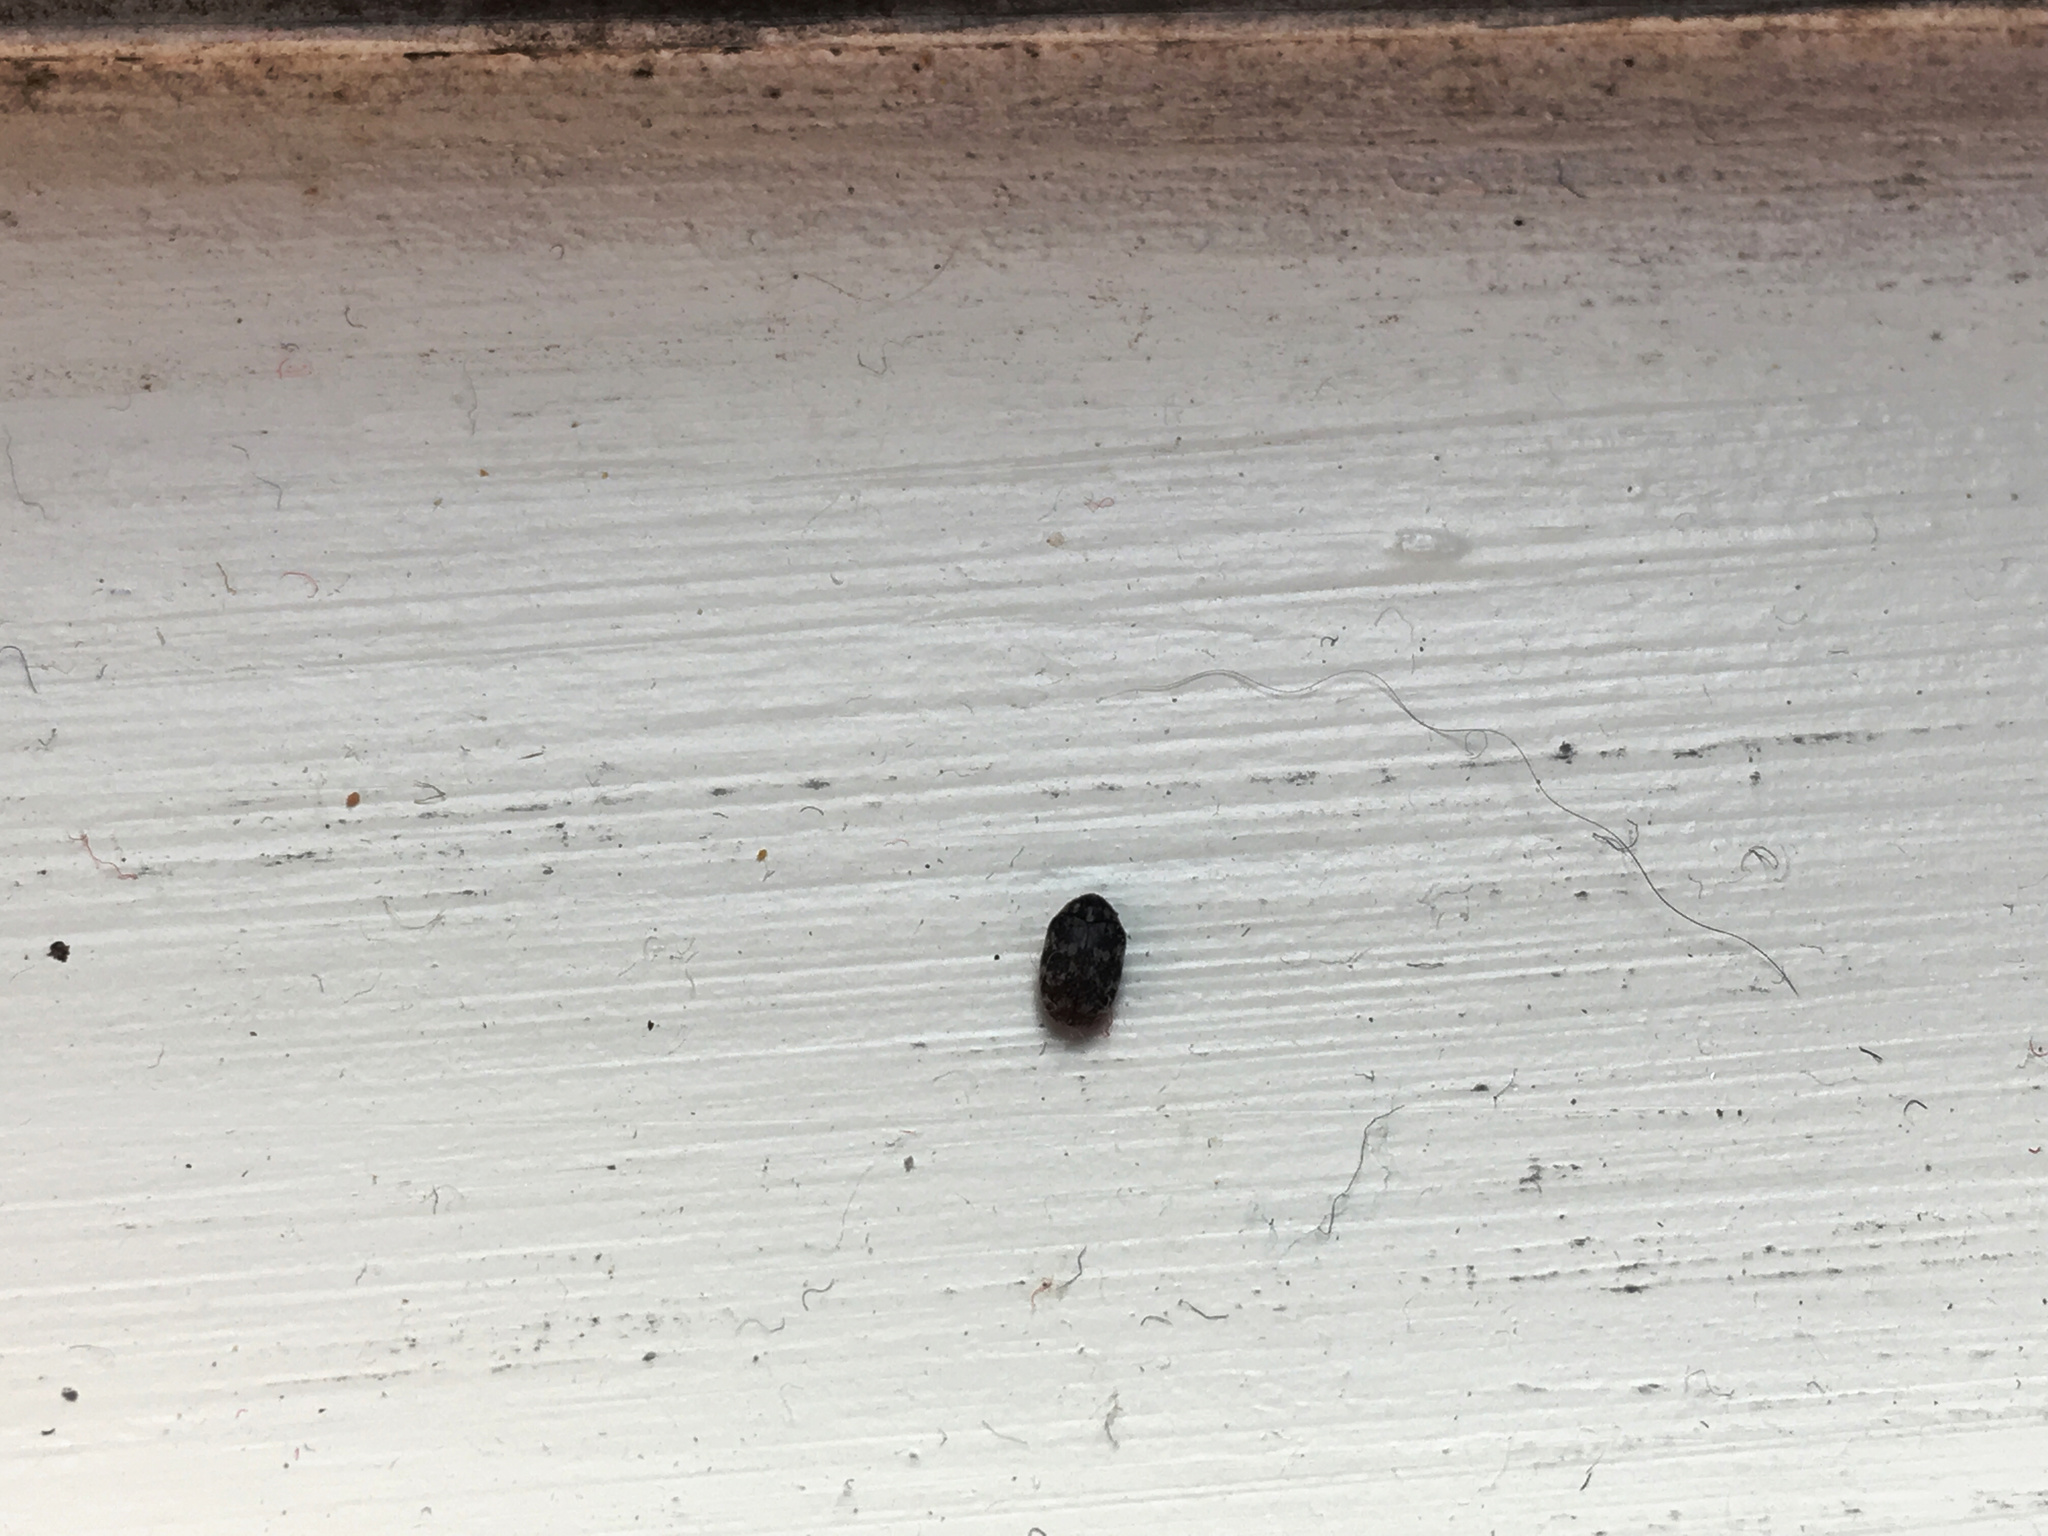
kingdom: Animalia
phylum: Arthropoda
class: Insecta
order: Coleoptera
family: Dermestidae
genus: Anthrenocerus
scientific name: Anthrenocerus australis
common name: Australian carpet beetle
